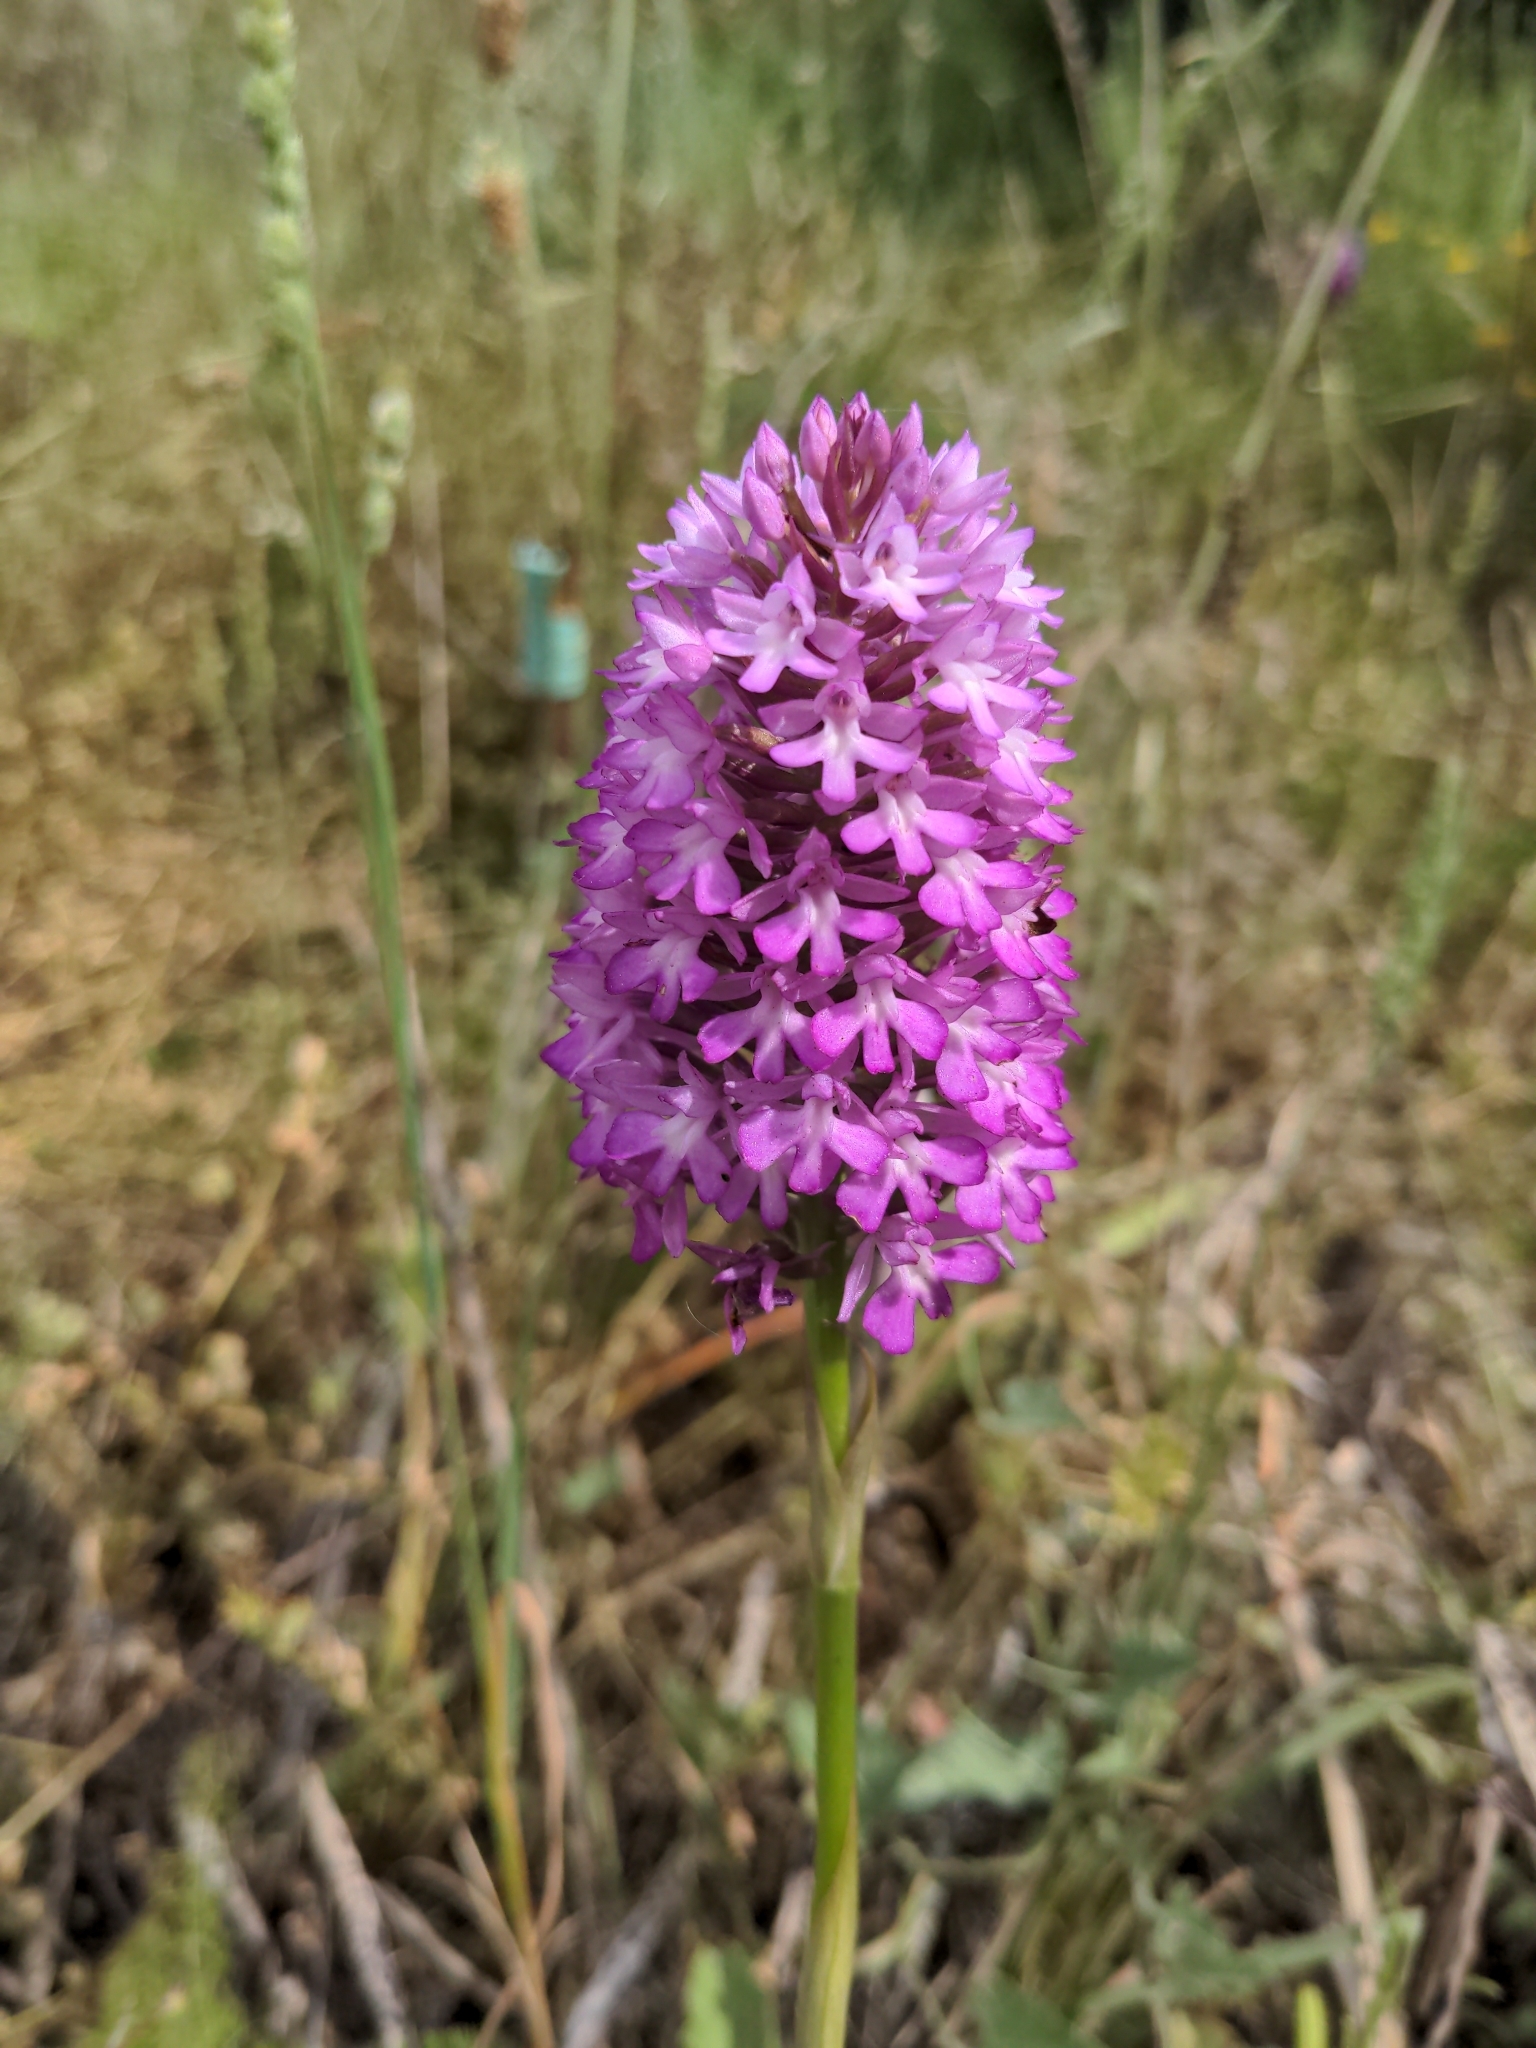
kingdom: Plantae
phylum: Tracheophyta
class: Liliopsida
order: Asparagales
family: Orchidaceae
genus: Anacamptis
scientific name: Anacamptis pyramidalis
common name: Pyramidal orchid
